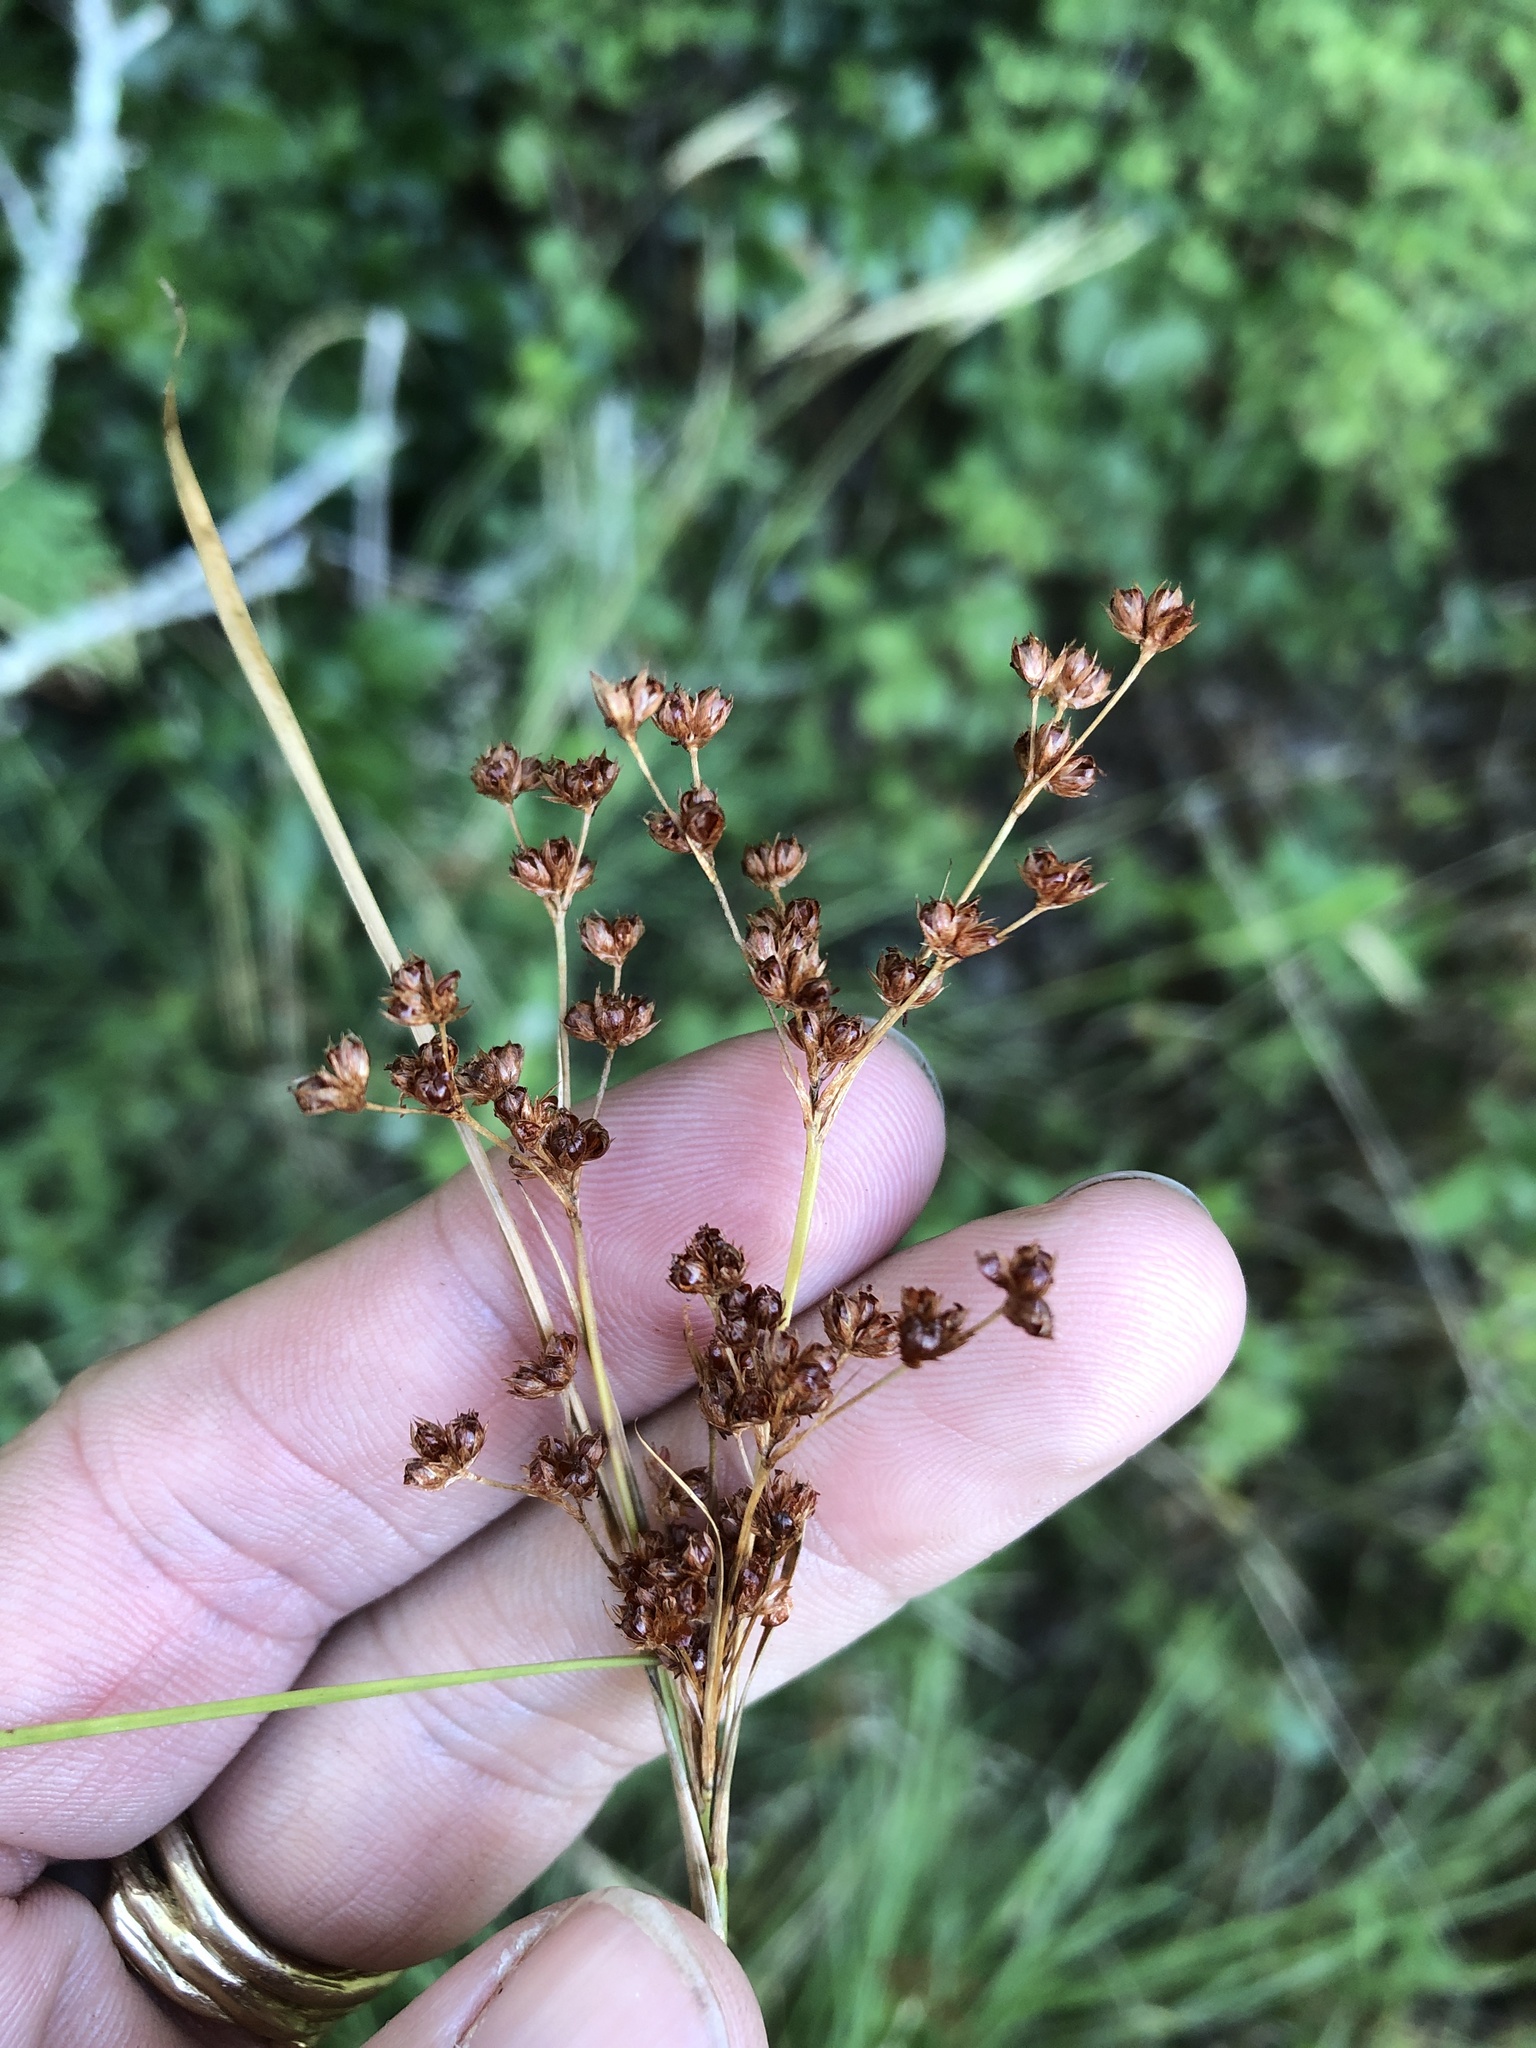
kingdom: Plantae
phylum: Tracheophyta
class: Liliopsida
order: Poales
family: Juncaceae
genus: Juncus
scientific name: Juncus marginatus
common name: Grass-leaf rush
